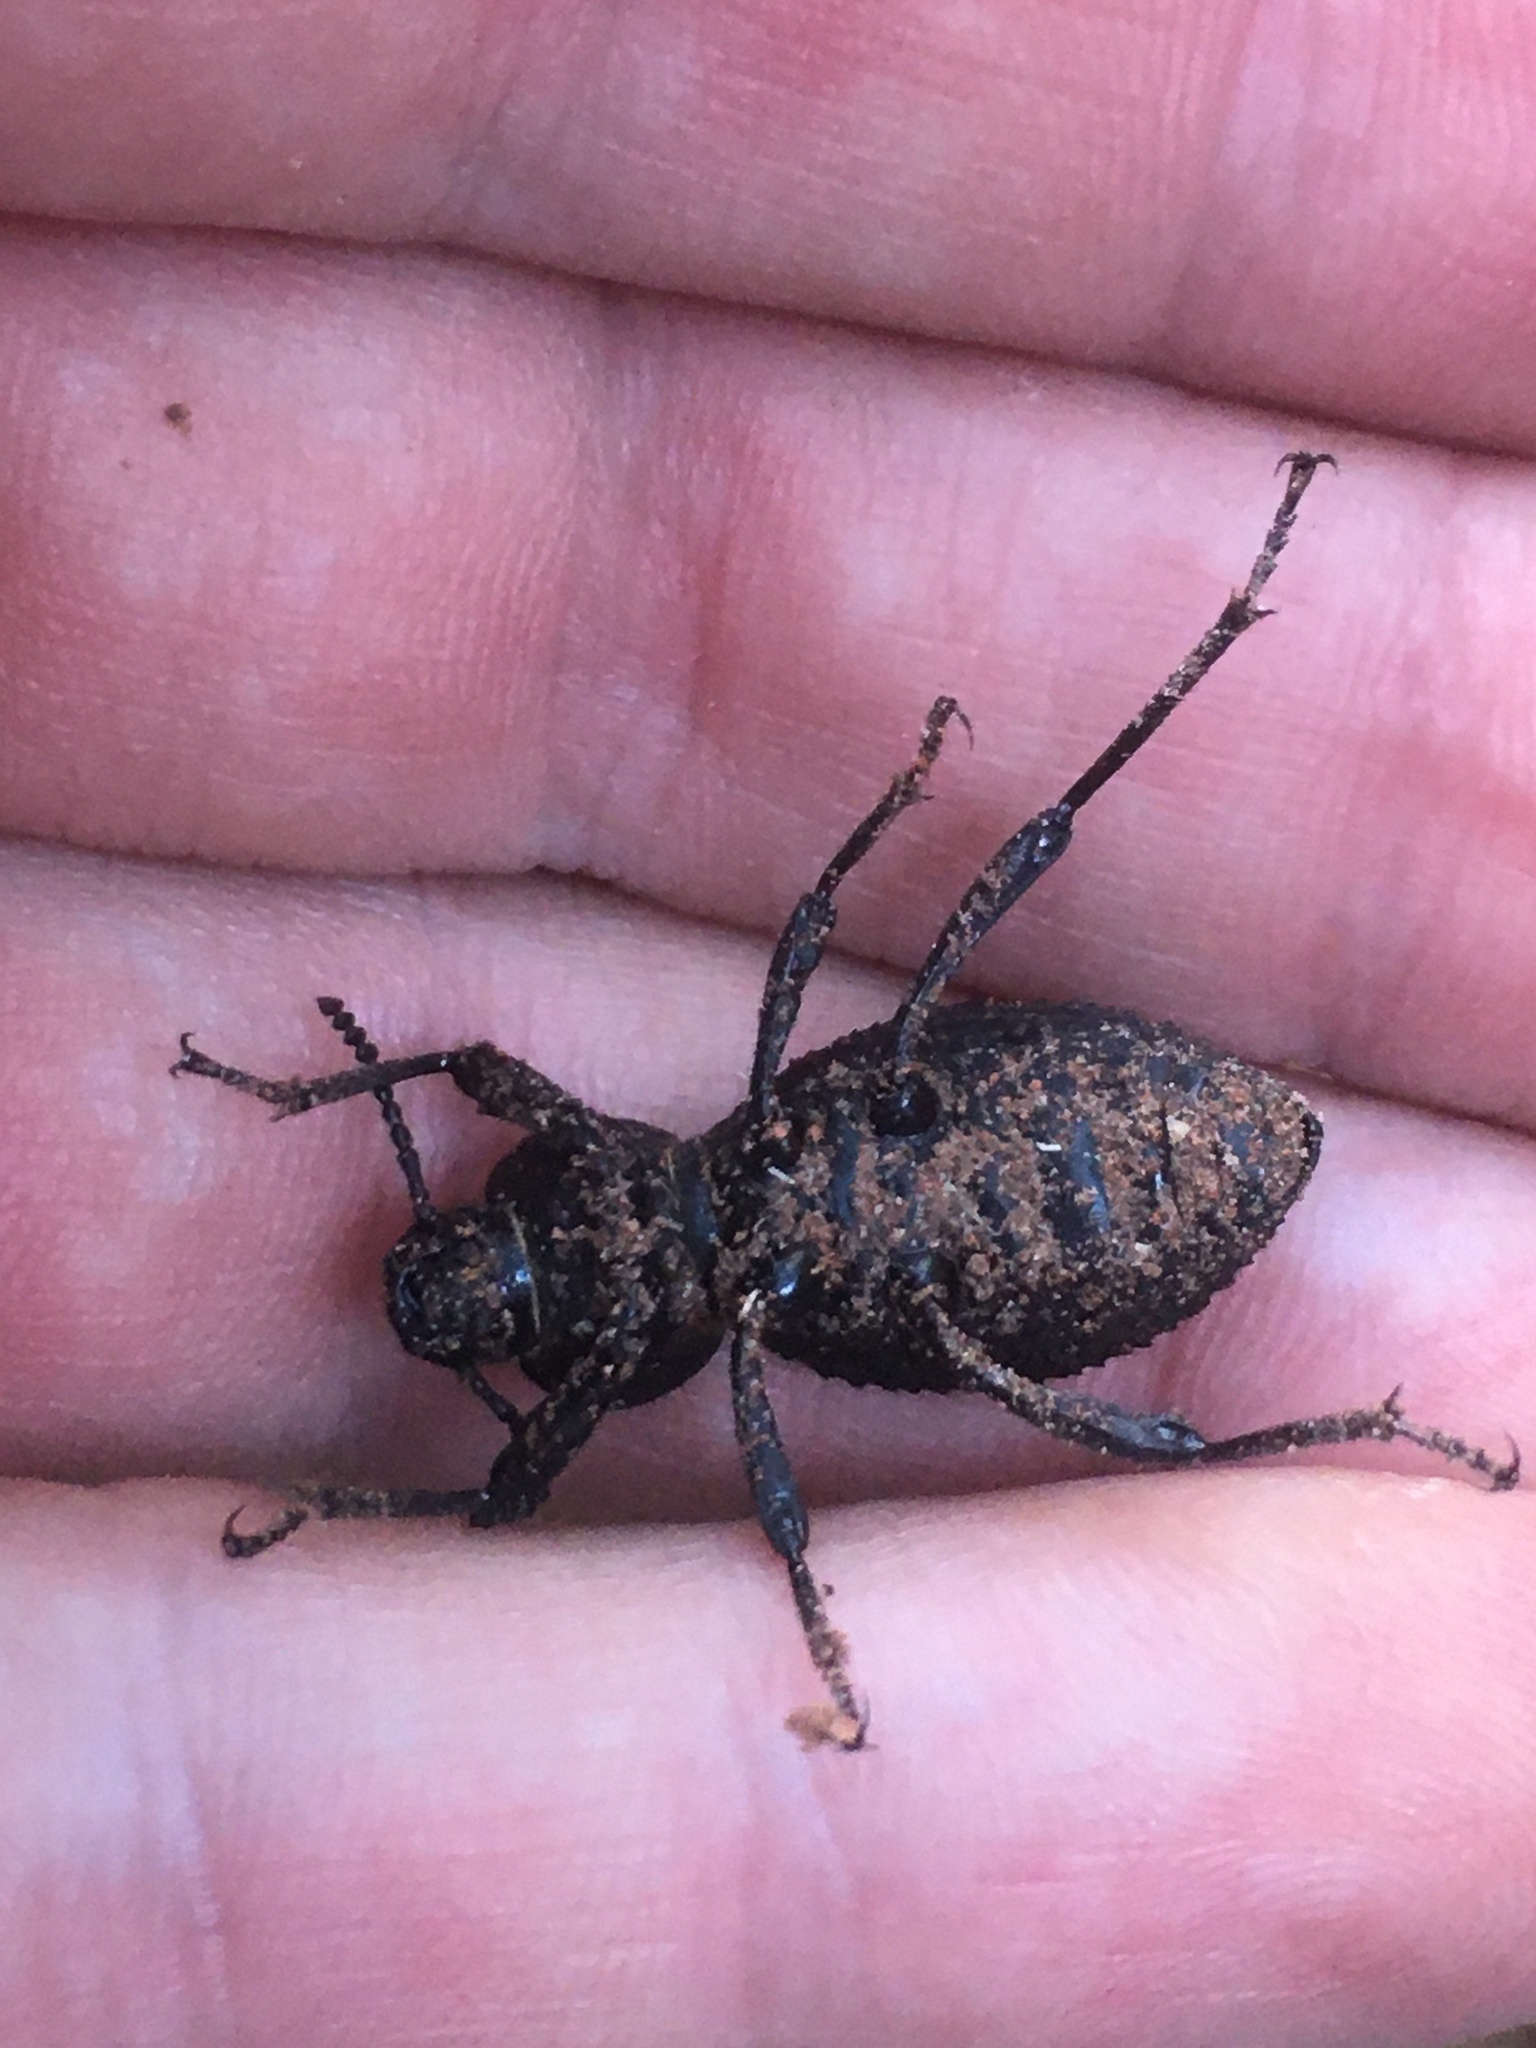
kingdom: Animalia
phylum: Arthropoda
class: Insecta
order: Coleoptera
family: Tenebrionidae
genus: Scotobius
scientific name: Scotobius
